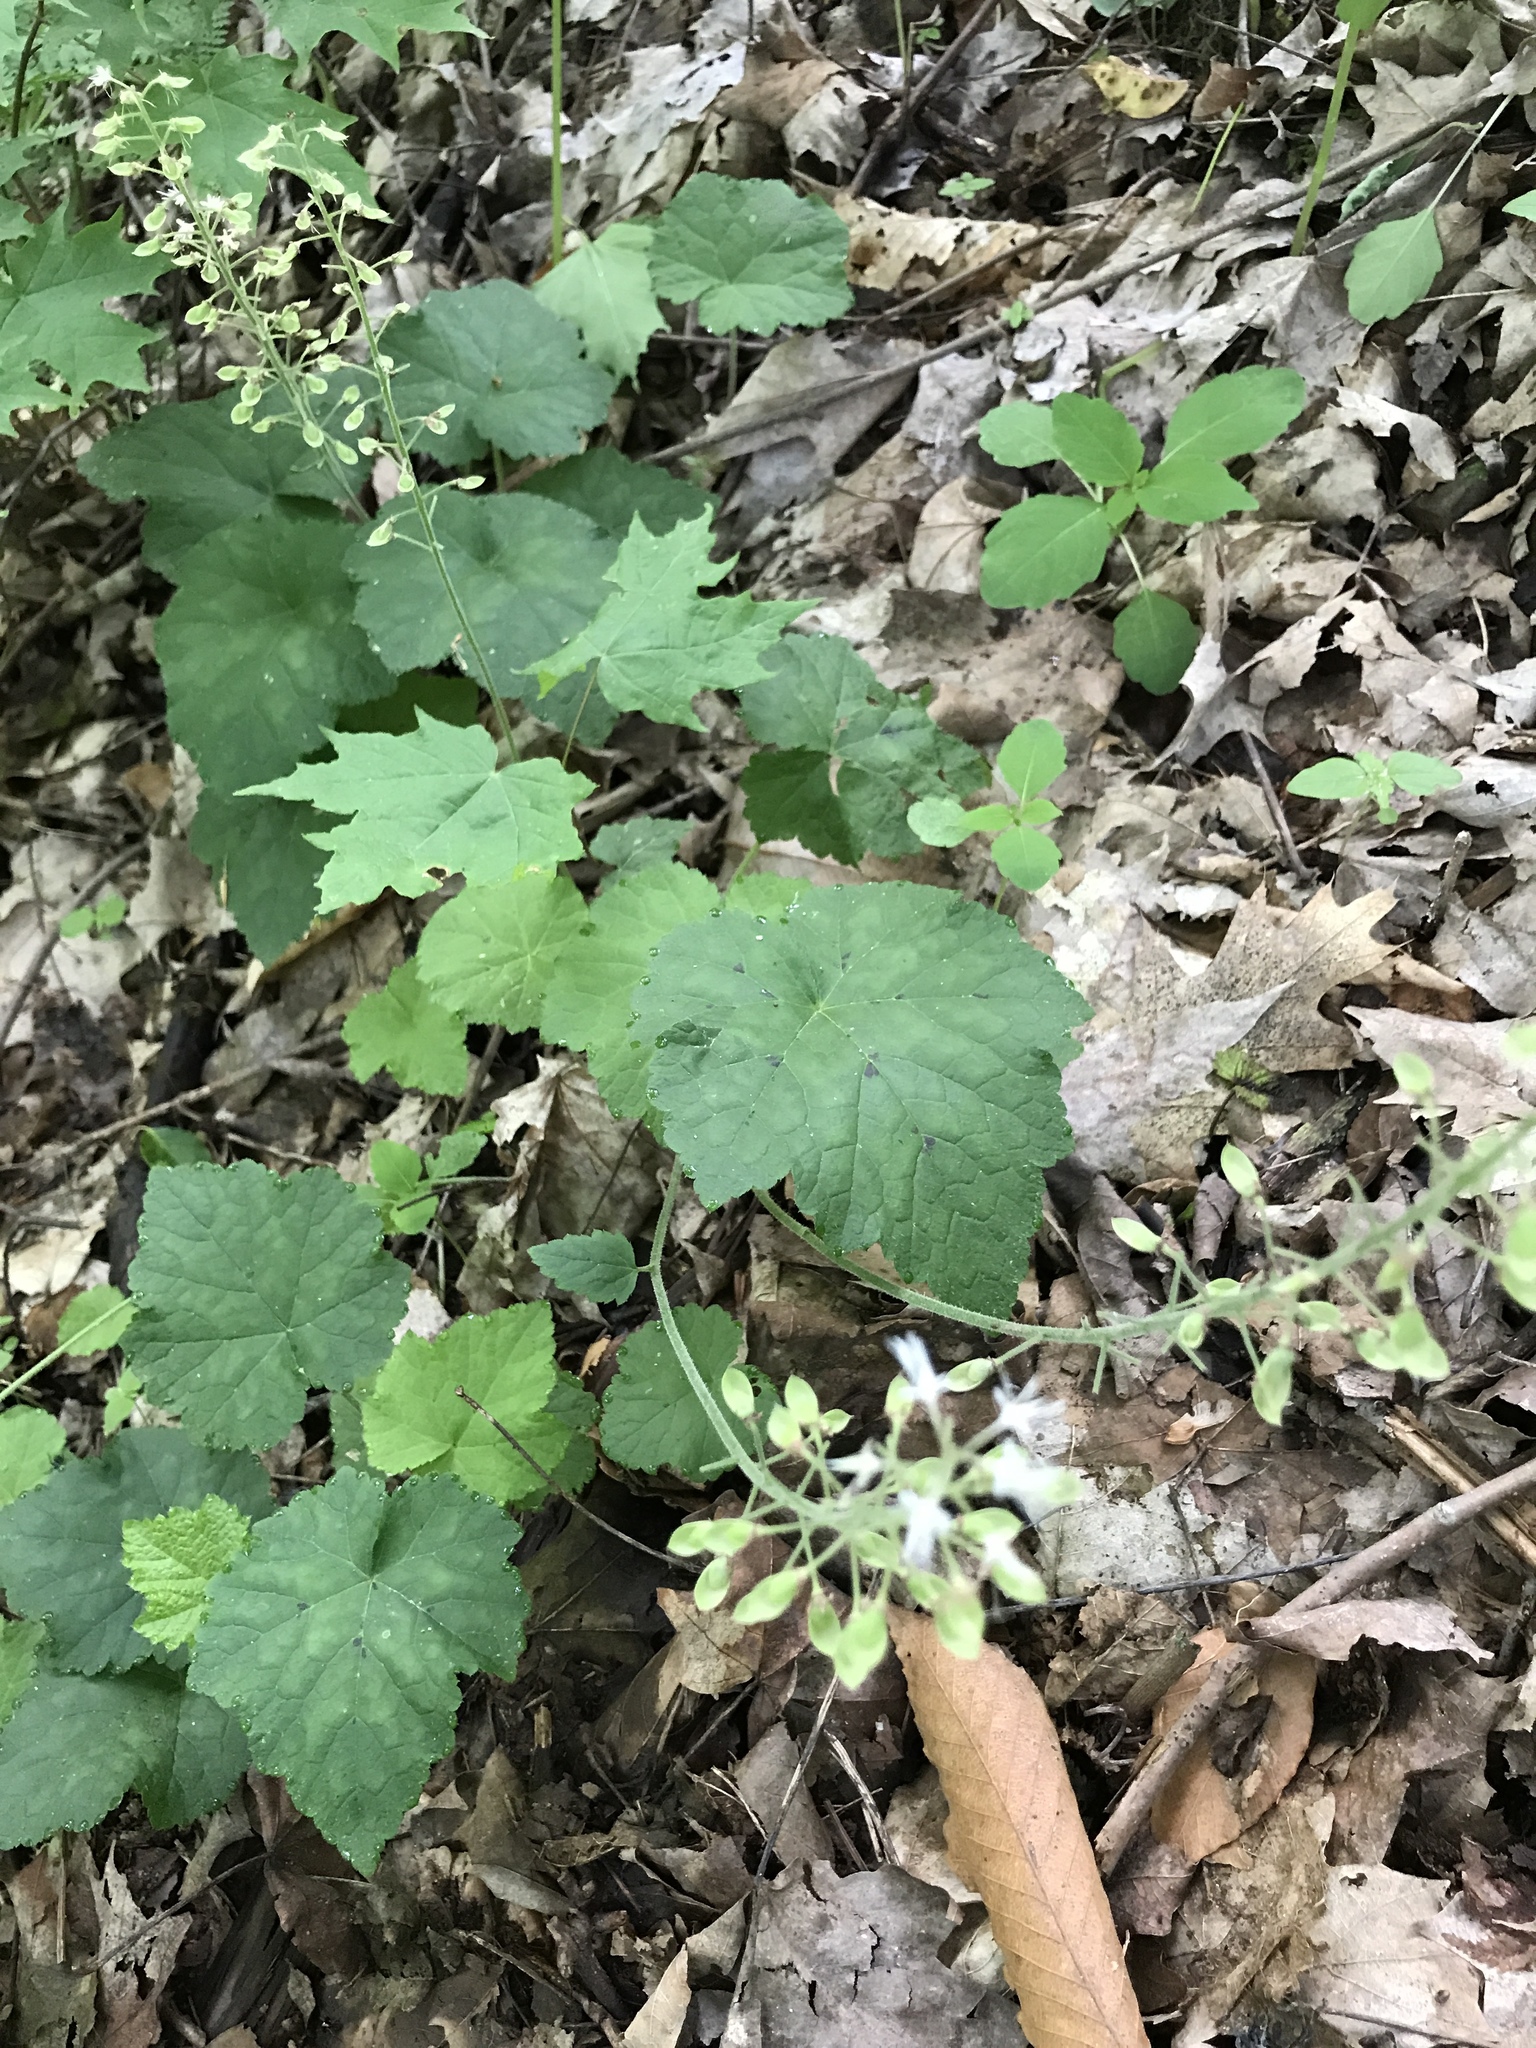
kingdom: Plantae
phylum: Tracheophyta
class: Magnoliopsida
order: Saxifragales
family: Saxifragaceae
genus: Tiarella
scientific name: Tiarella stolonifera
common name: Stoloniferous foamflower
